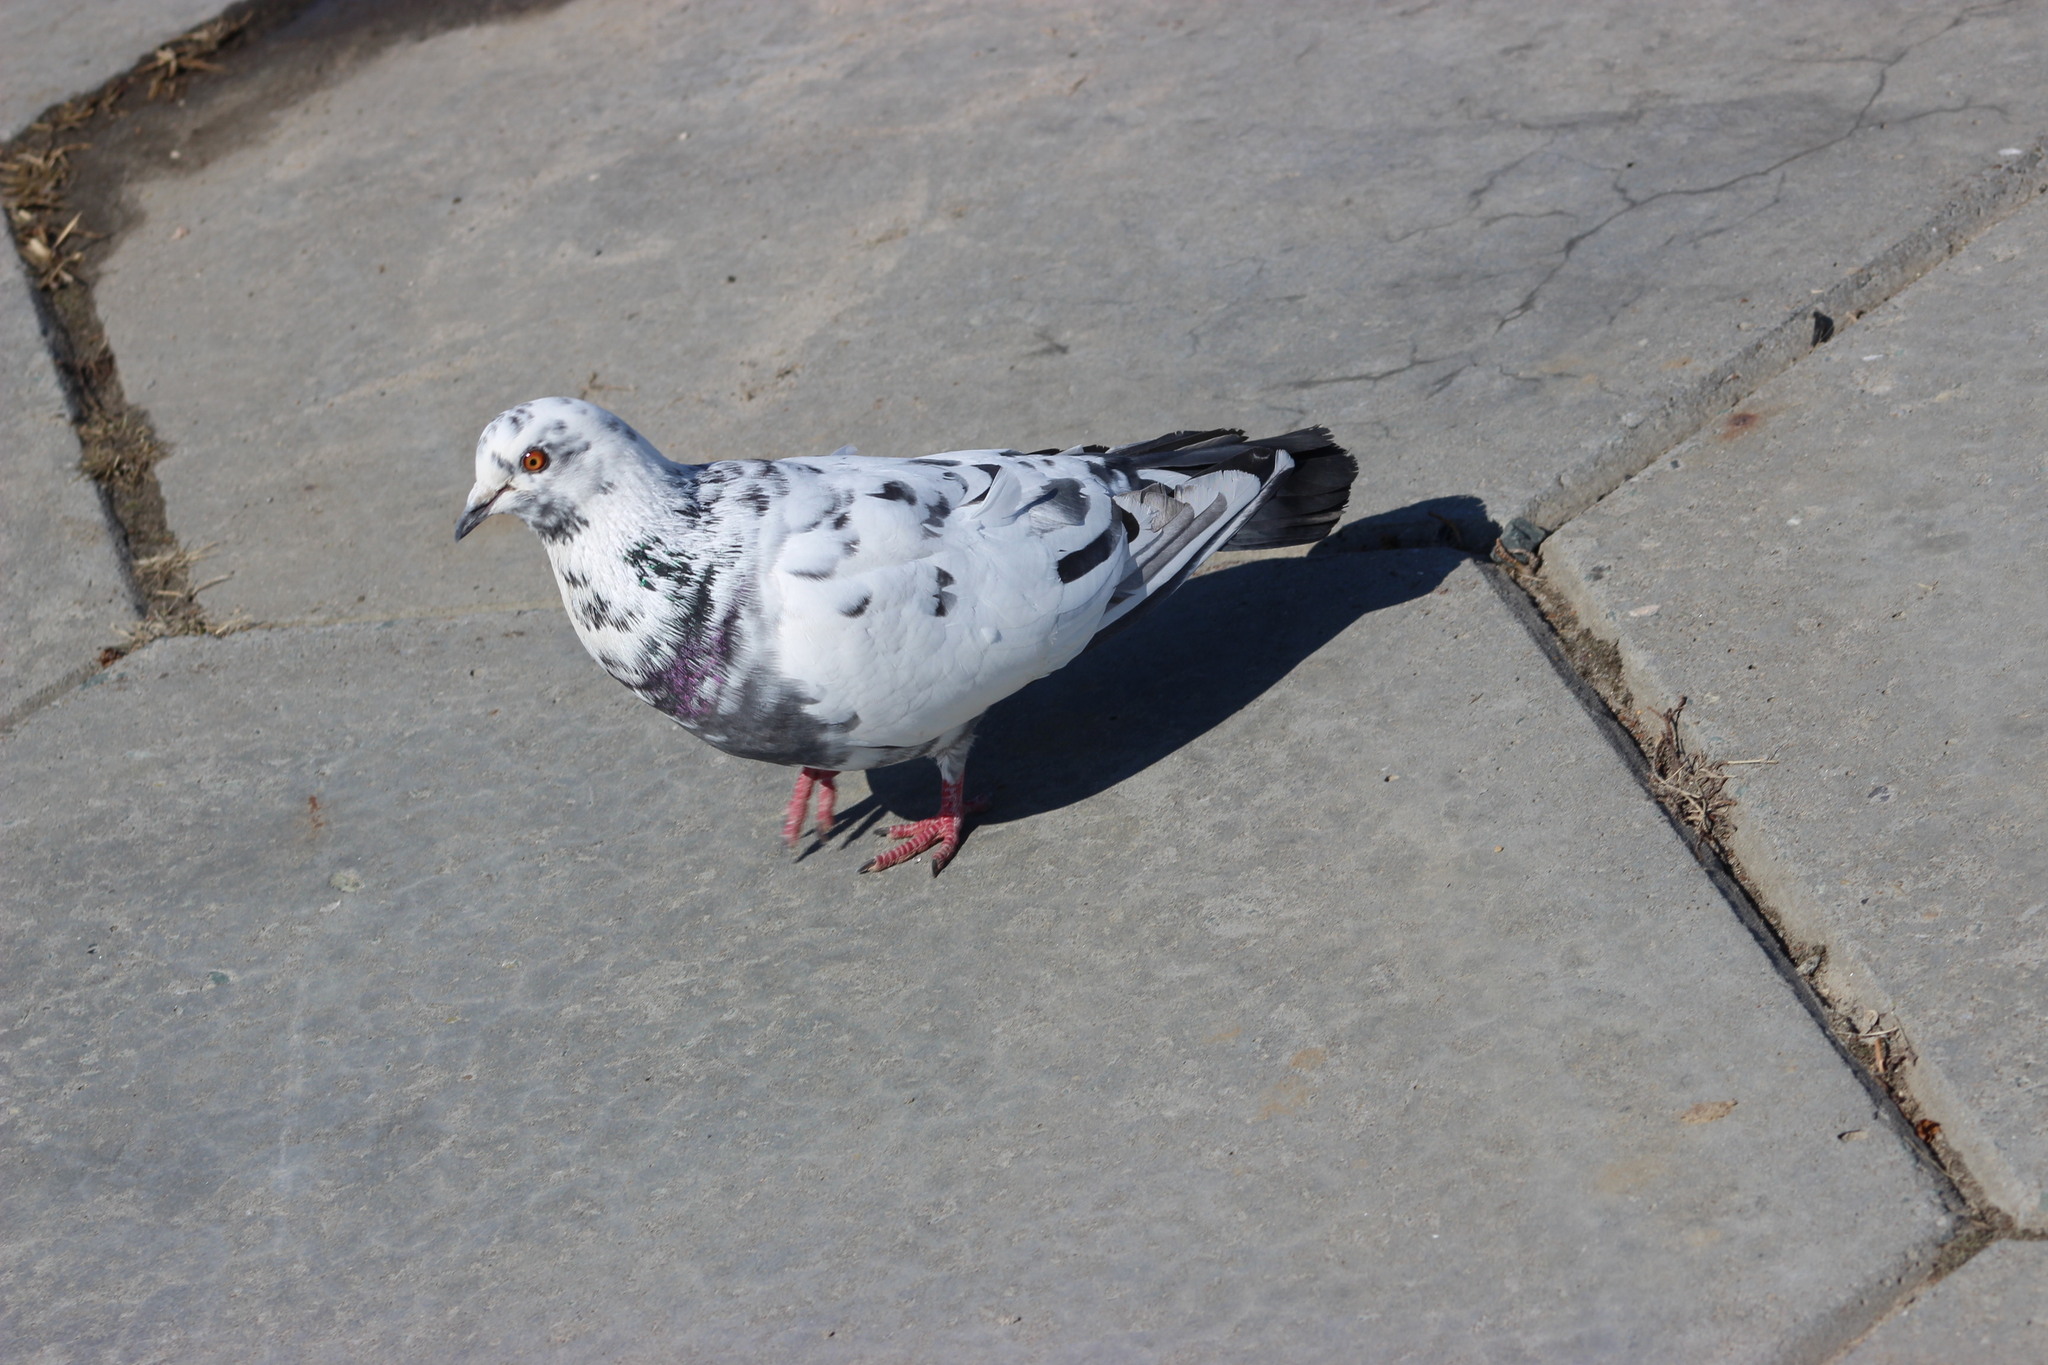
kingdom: Animalia
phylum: Chordata
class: Aves
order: Columbiformes
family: Columbidae
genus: Columba
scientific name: Columba livia
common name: Rock pigeon
